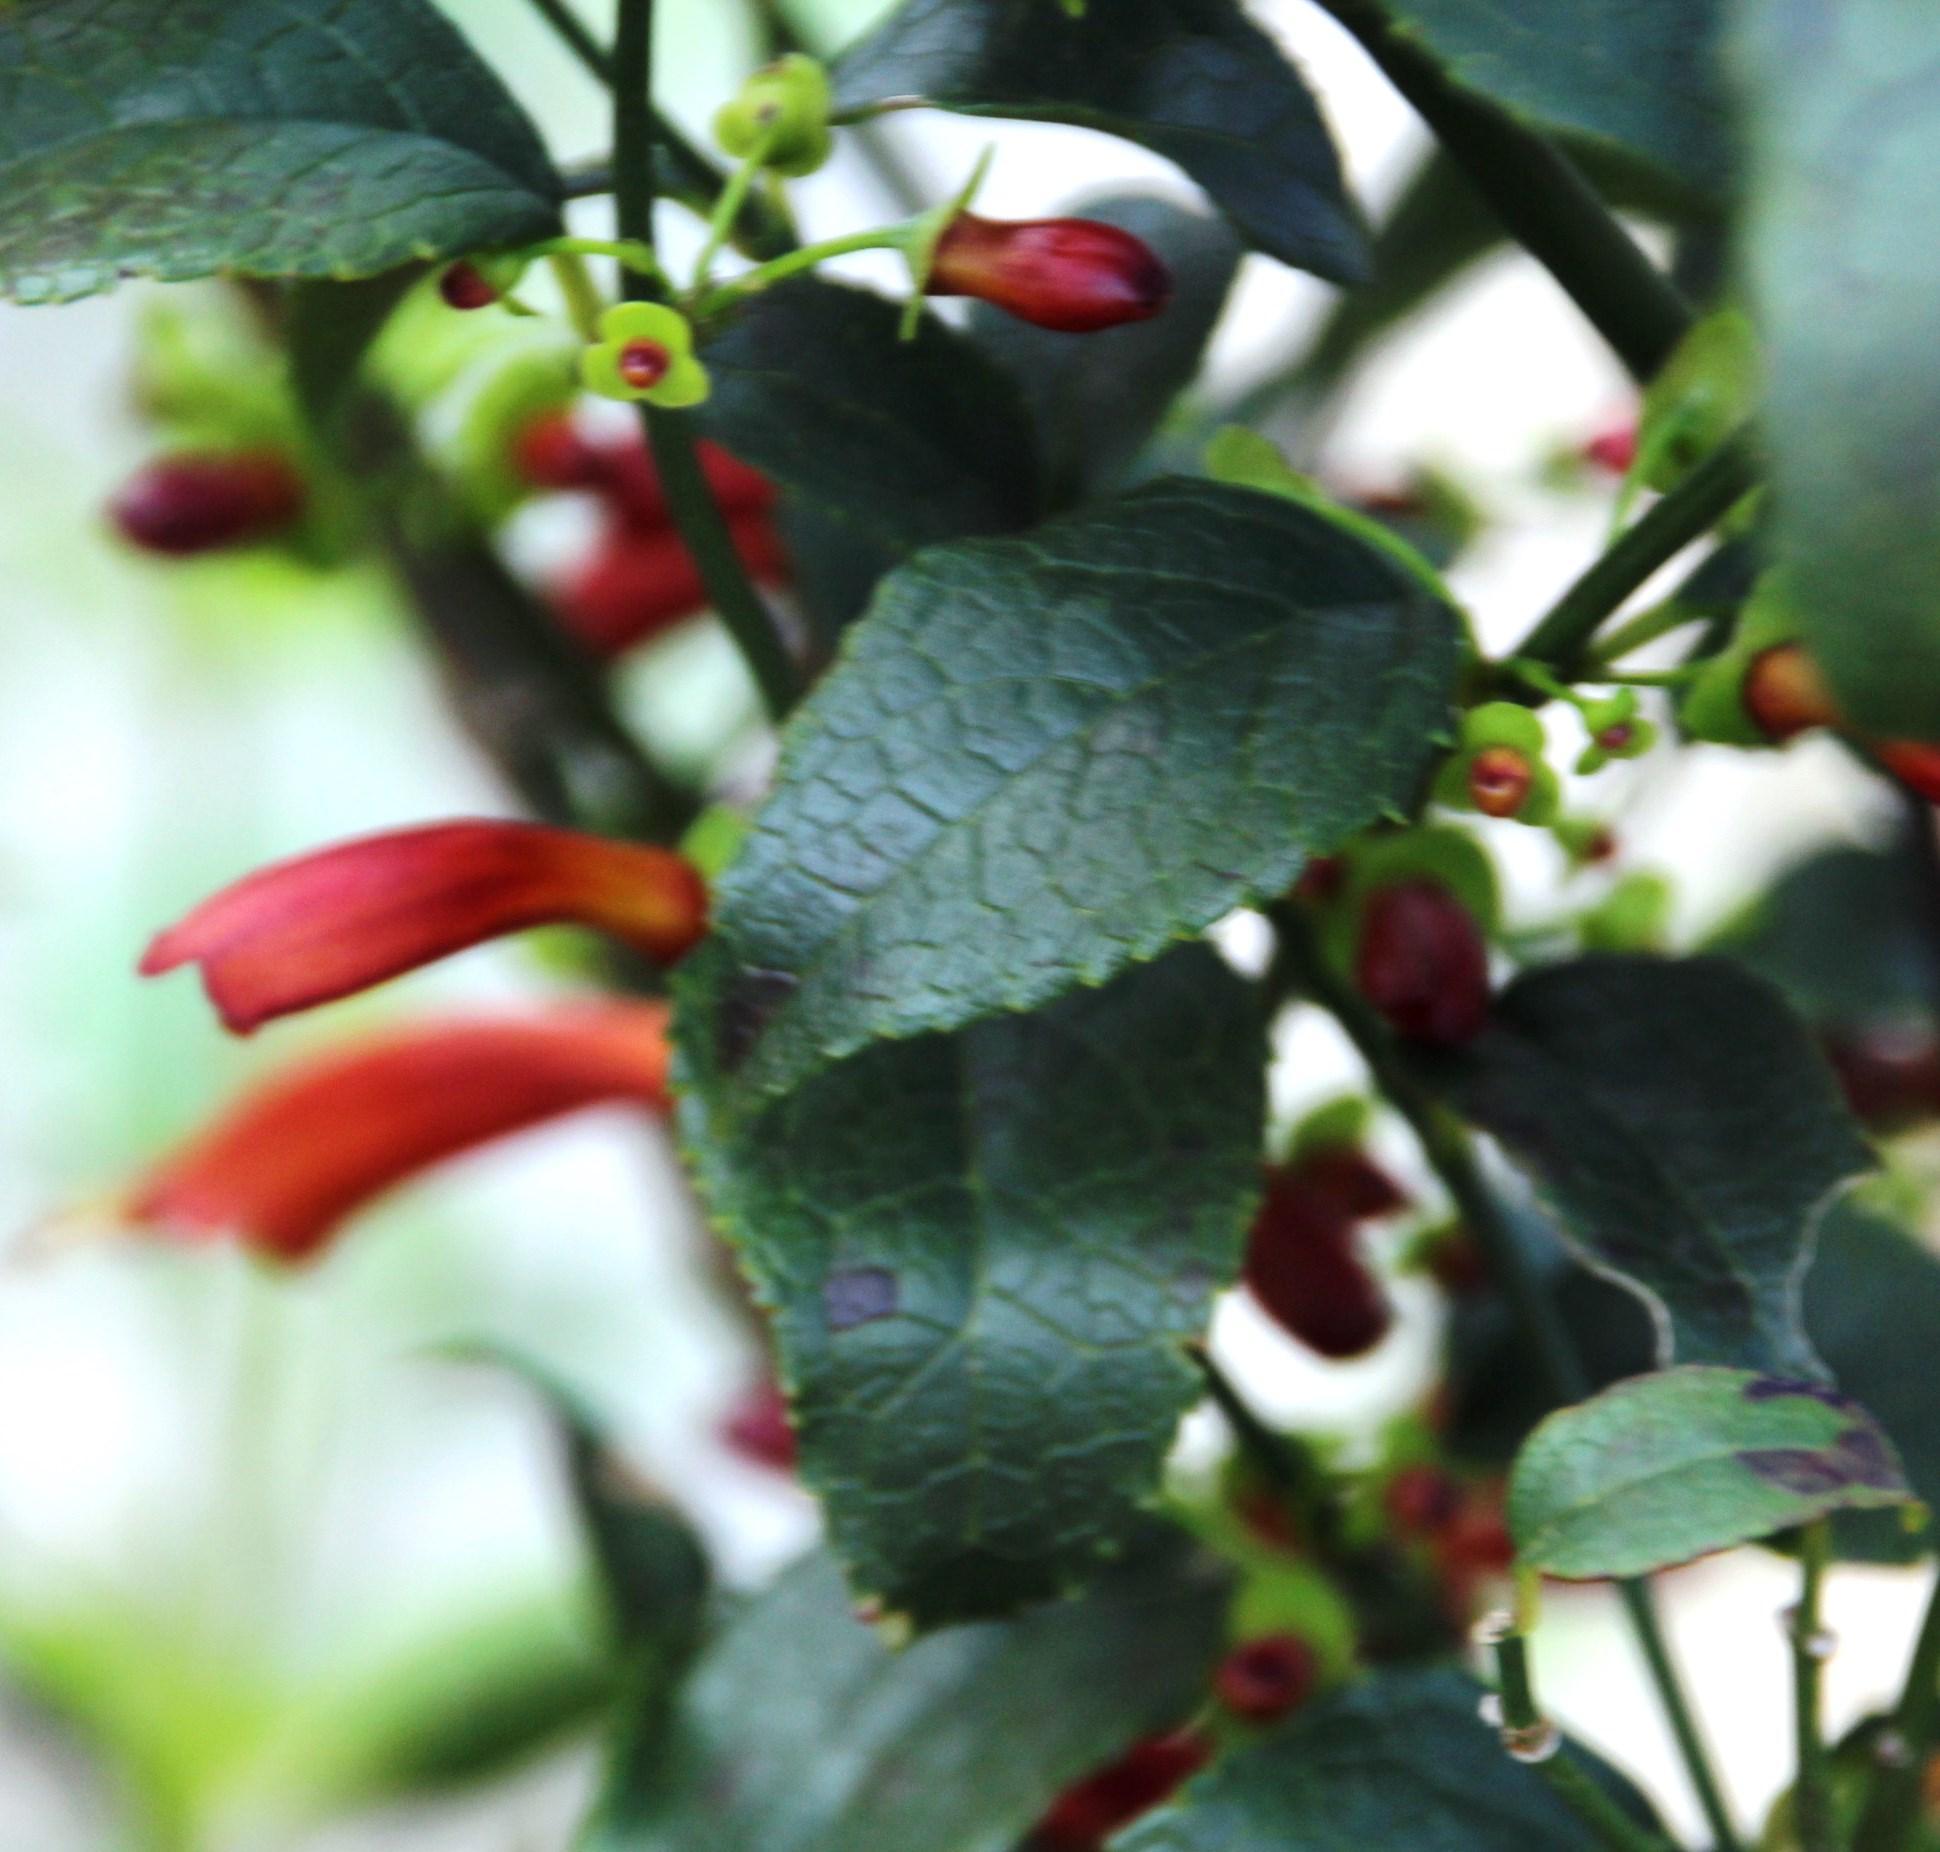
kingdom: Plantae
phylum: Tracheophyta
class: Magnoliopsida
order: Lamiales
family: Stilbaceae
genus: Halleria
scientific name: Halleria lucida
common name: Tree fuschia
